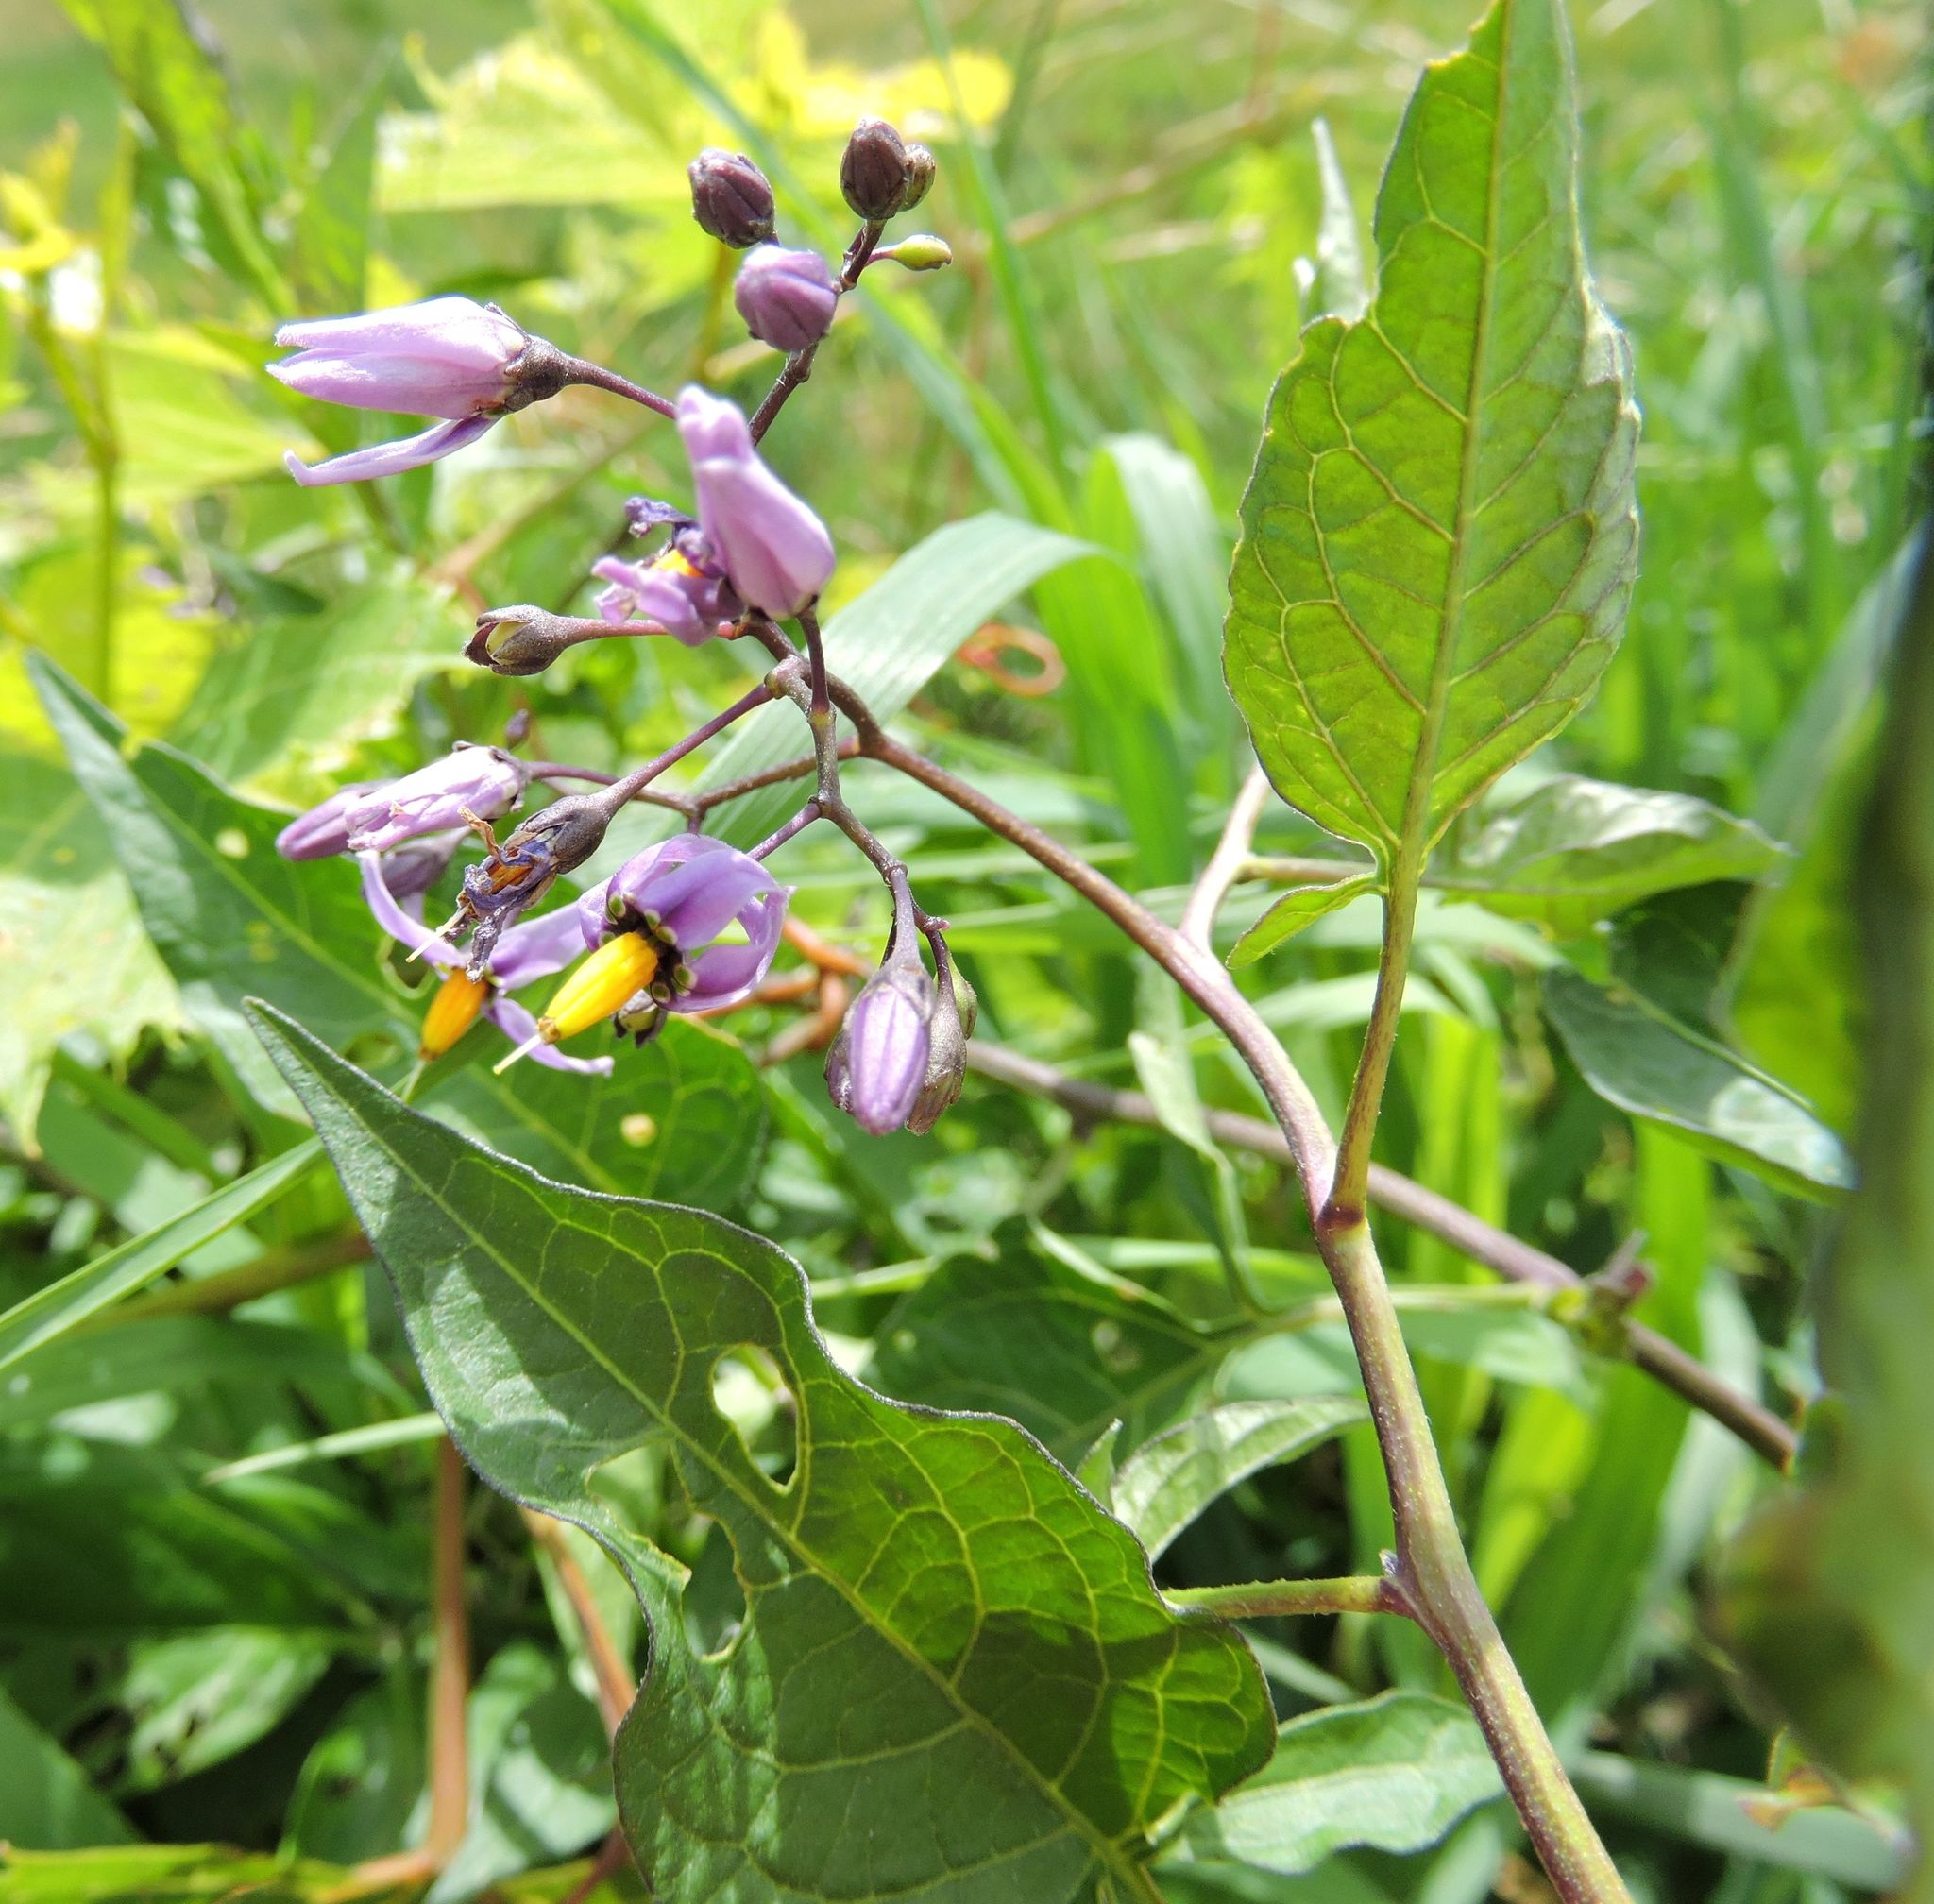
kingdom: Plantae
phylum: Tracheophyta
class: Magnoliopsida
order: Solanales
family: Solanaceae
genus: Solanum
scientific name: Solanum dulcamara
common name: Climbing nightshade
